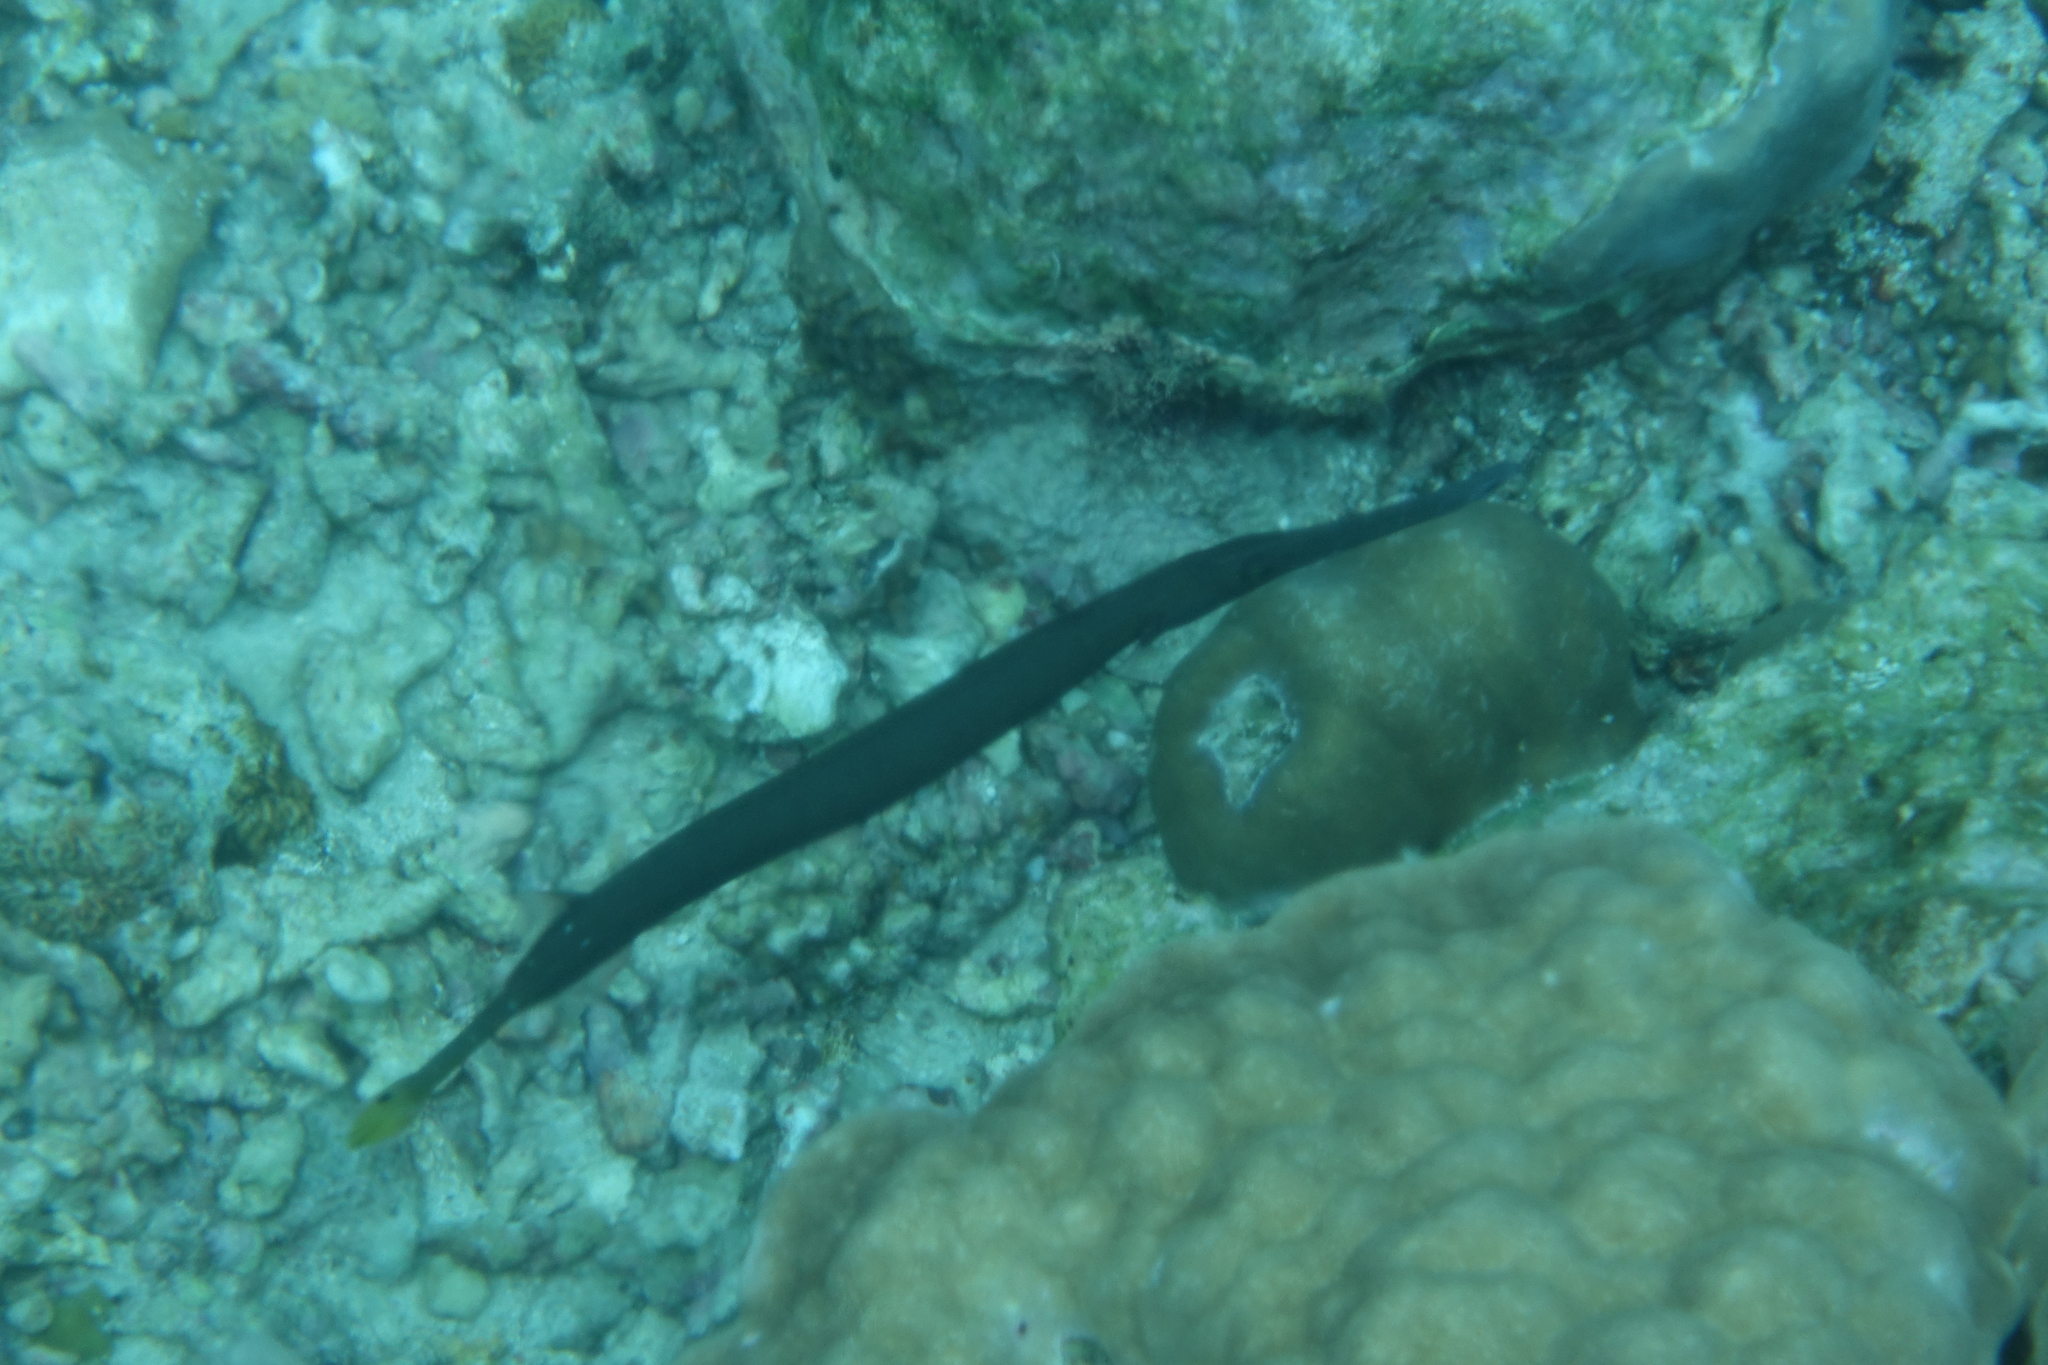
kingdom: Animalia
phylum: Chordata
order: Syngnathiformes
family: Aulostomidae
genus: Aulostomus
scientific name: Aulostomus chinensis
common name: Chinese trumpetfish
